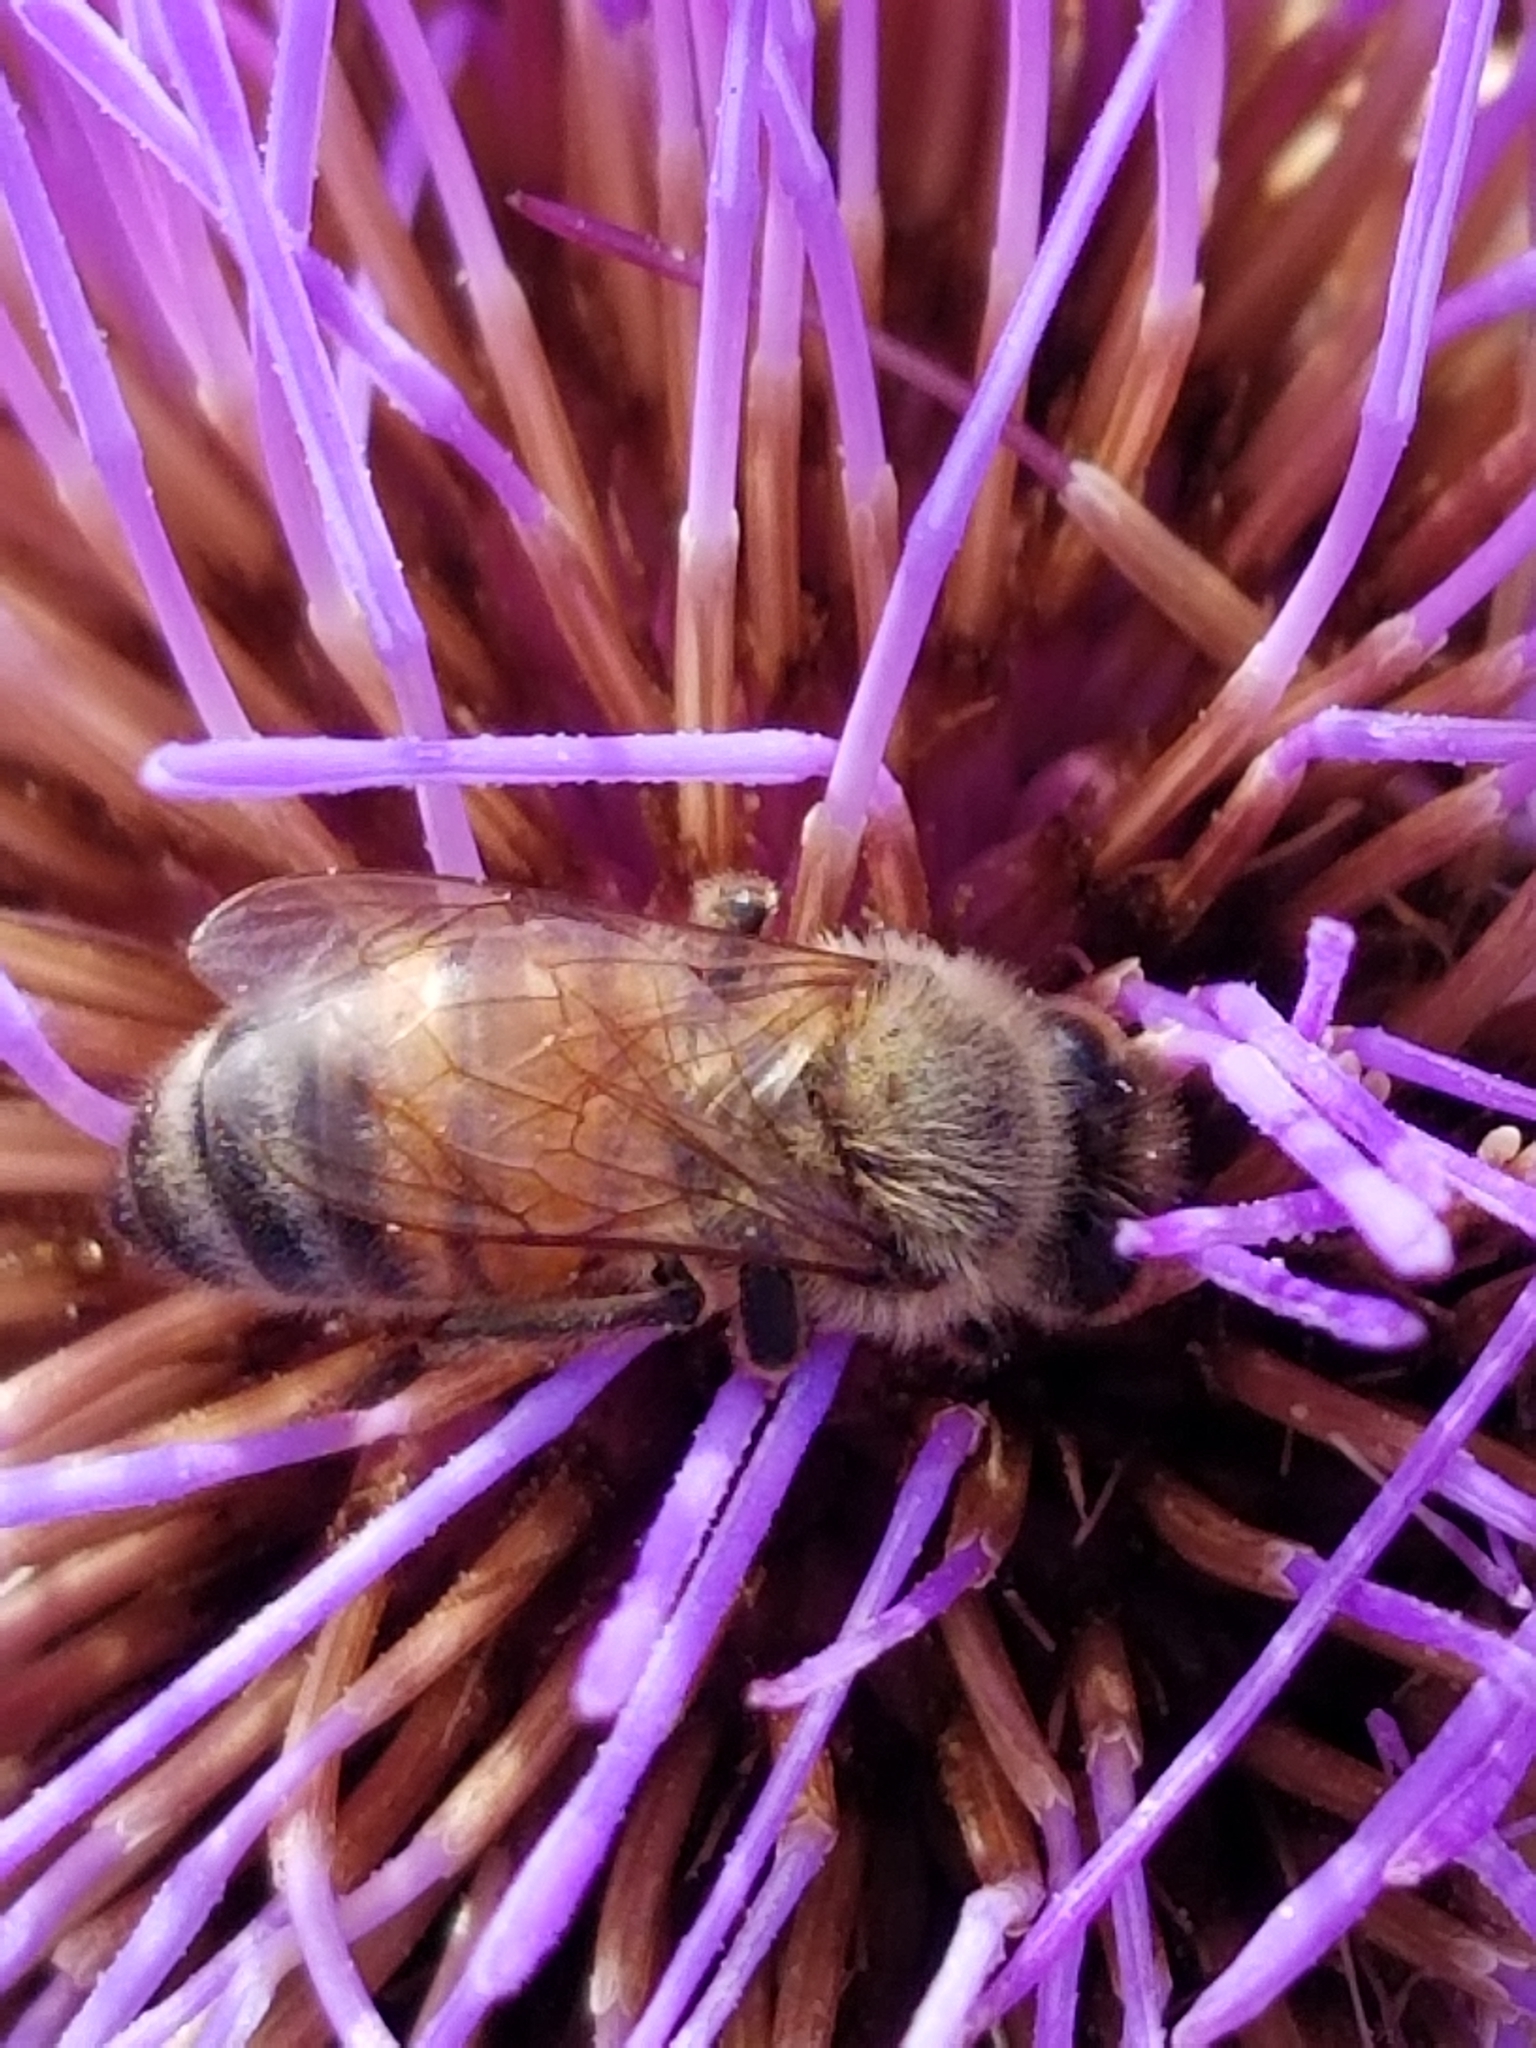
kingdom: Animalia
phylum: Arthropoda
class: Insecta
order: Hymenoptera
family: Apidae
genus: Apis
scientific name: Apis mellifera
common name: Honey bee
